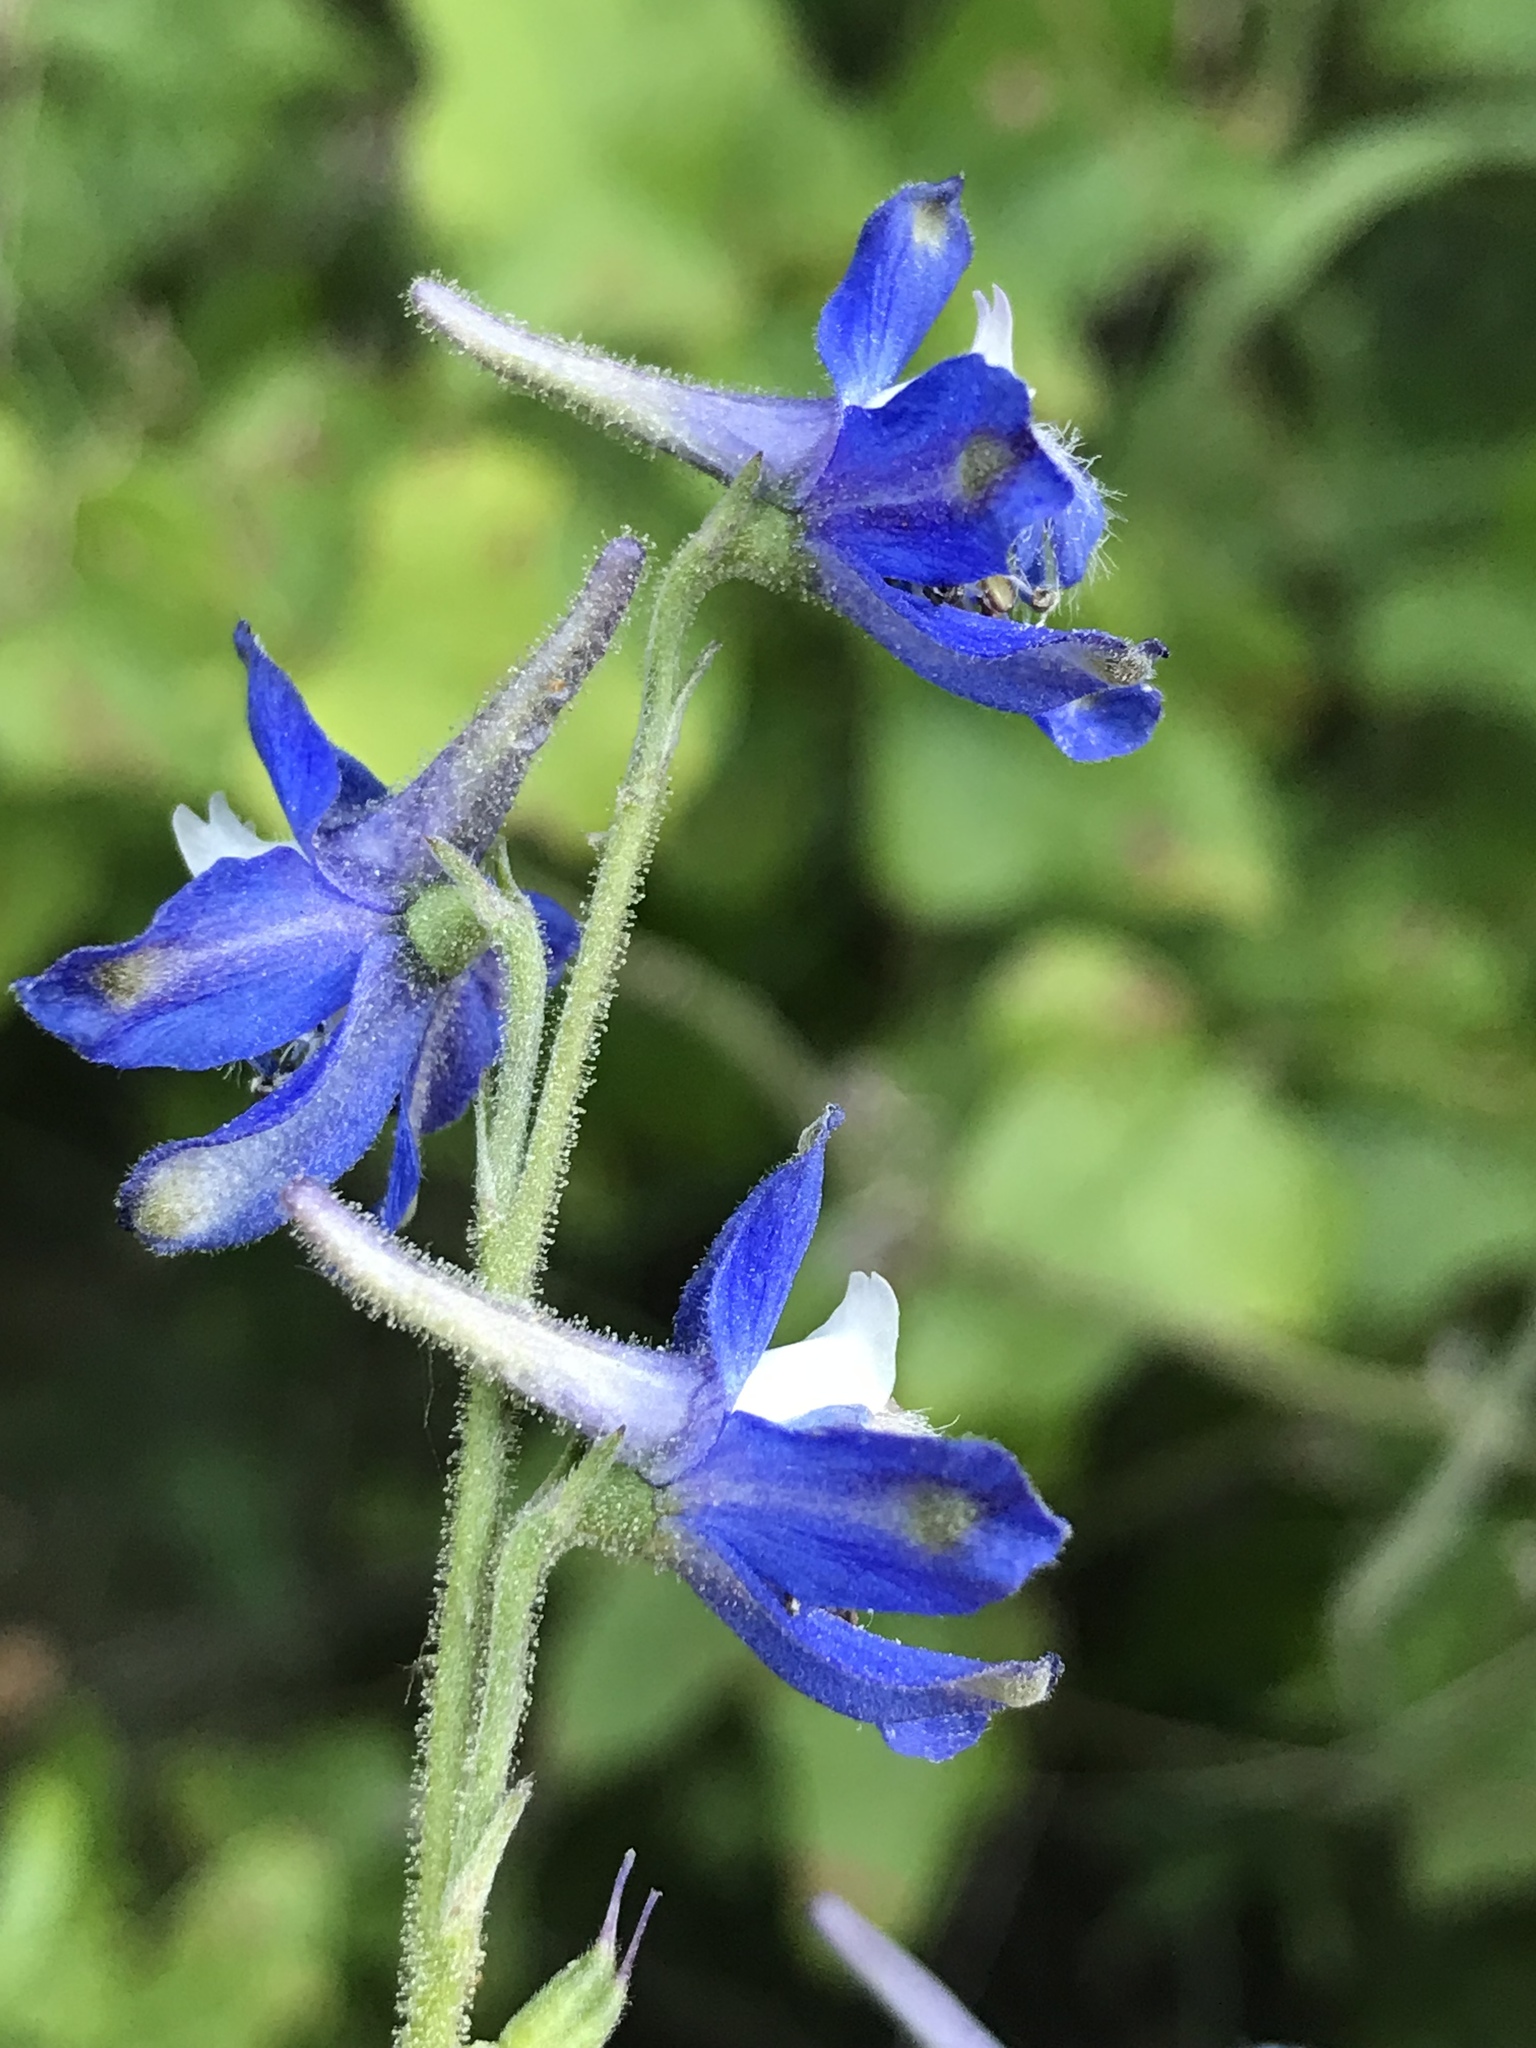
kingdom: Plantae
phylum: Tracheophyta
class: Magnoliopsida
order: Ranunculales
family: Ranunculaceae
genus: Delphinium
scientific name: Delphinium carolinianum
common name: Carolina larkspur
